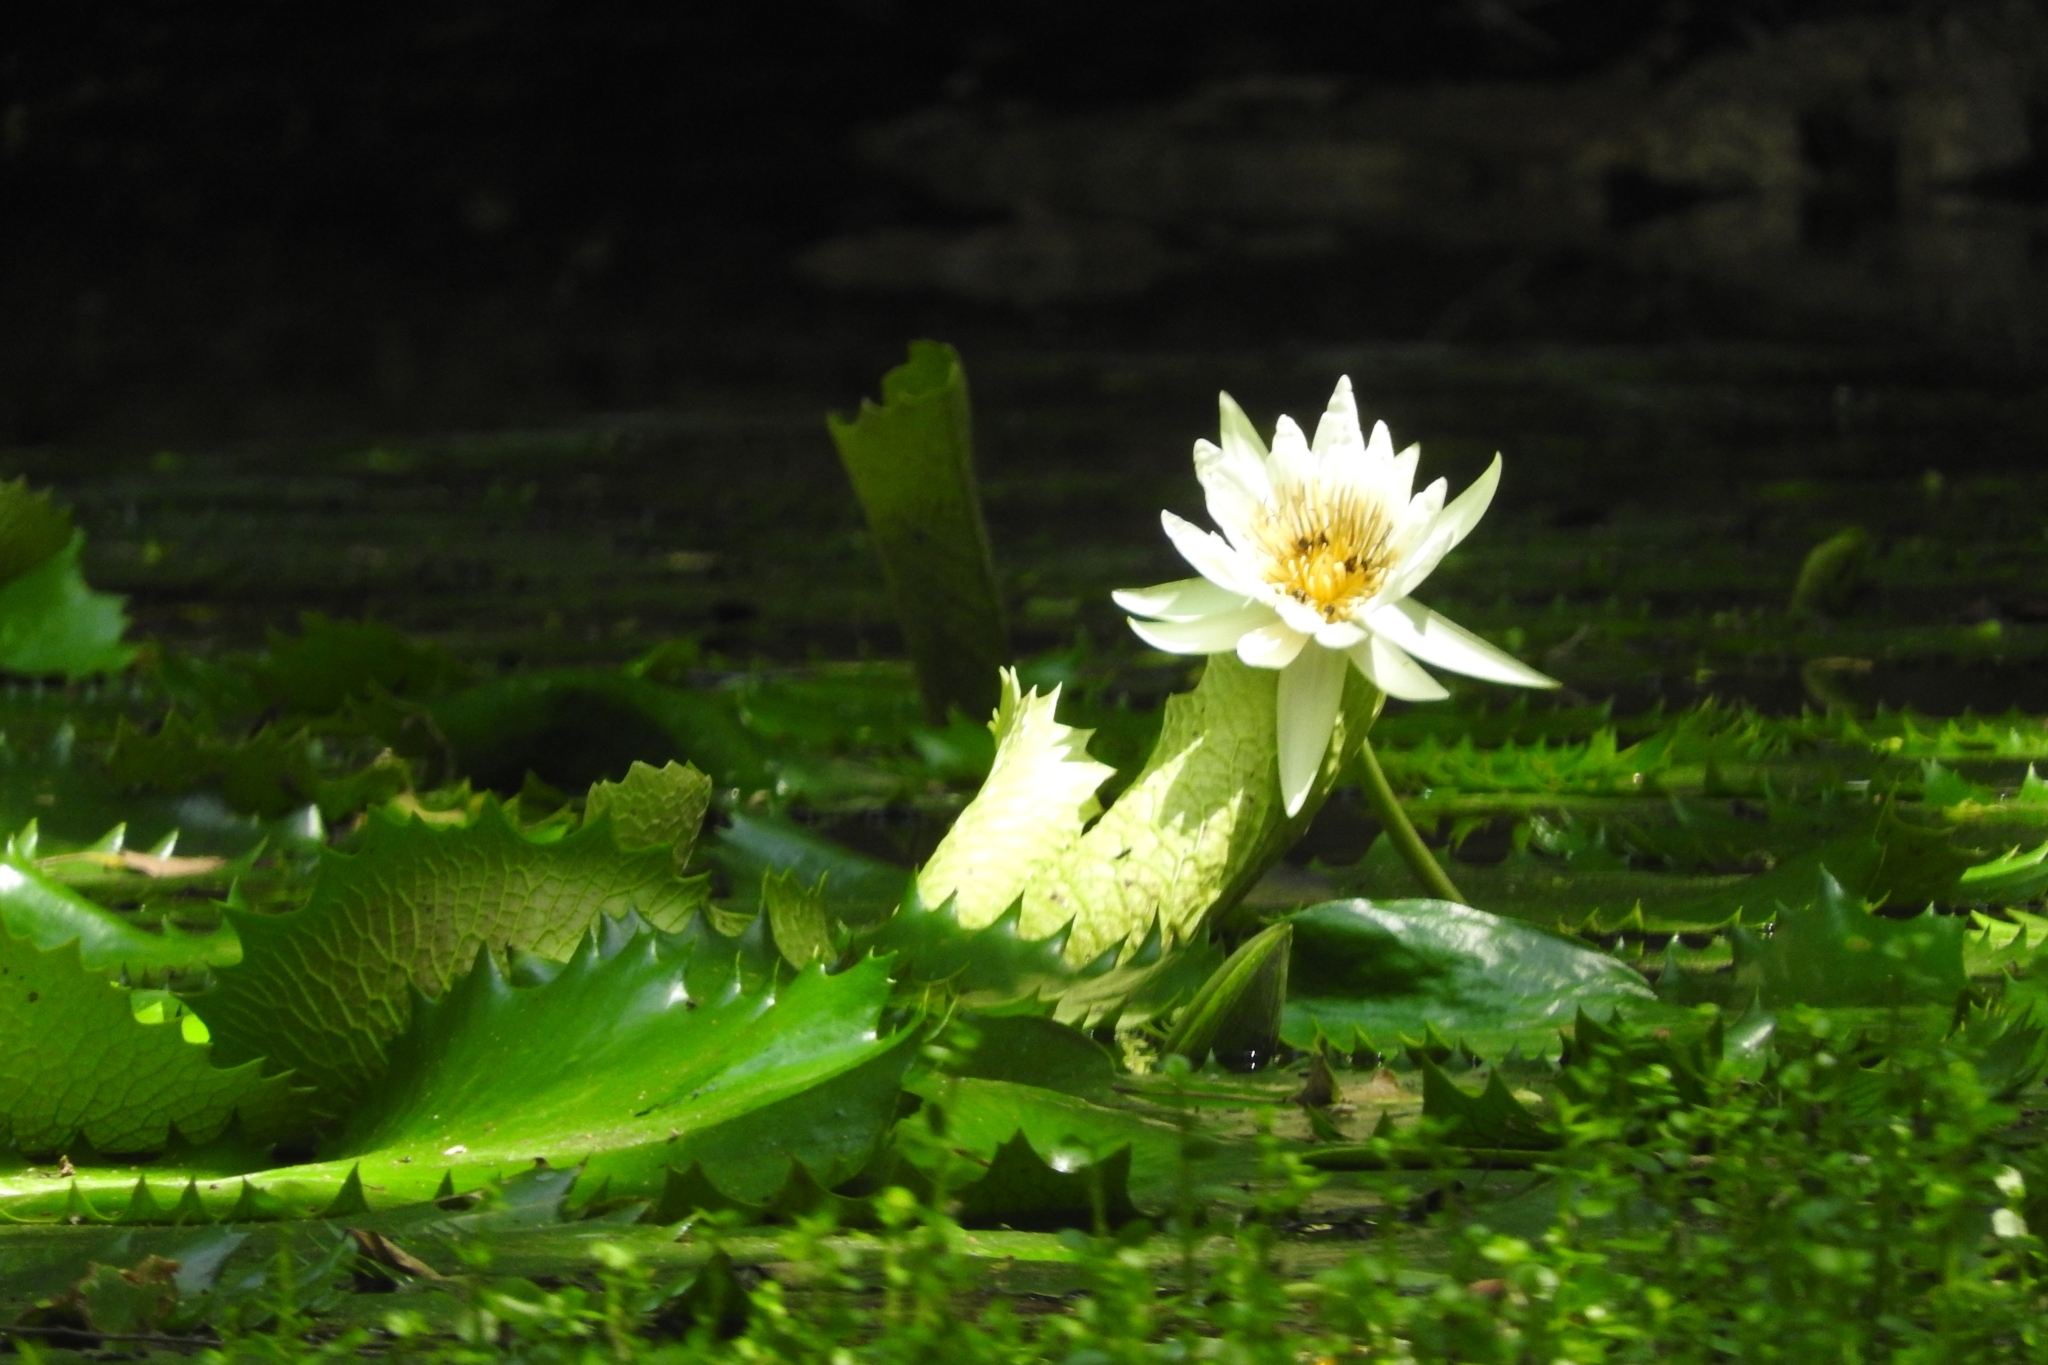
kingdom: Plantae
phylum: Tracheophyta
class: Magnoliopsida
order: Nymphaeales
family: Nymphaeaceae
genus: Nymphaea
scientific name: Nymphaea ampla
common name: Dotleaf waterlily
